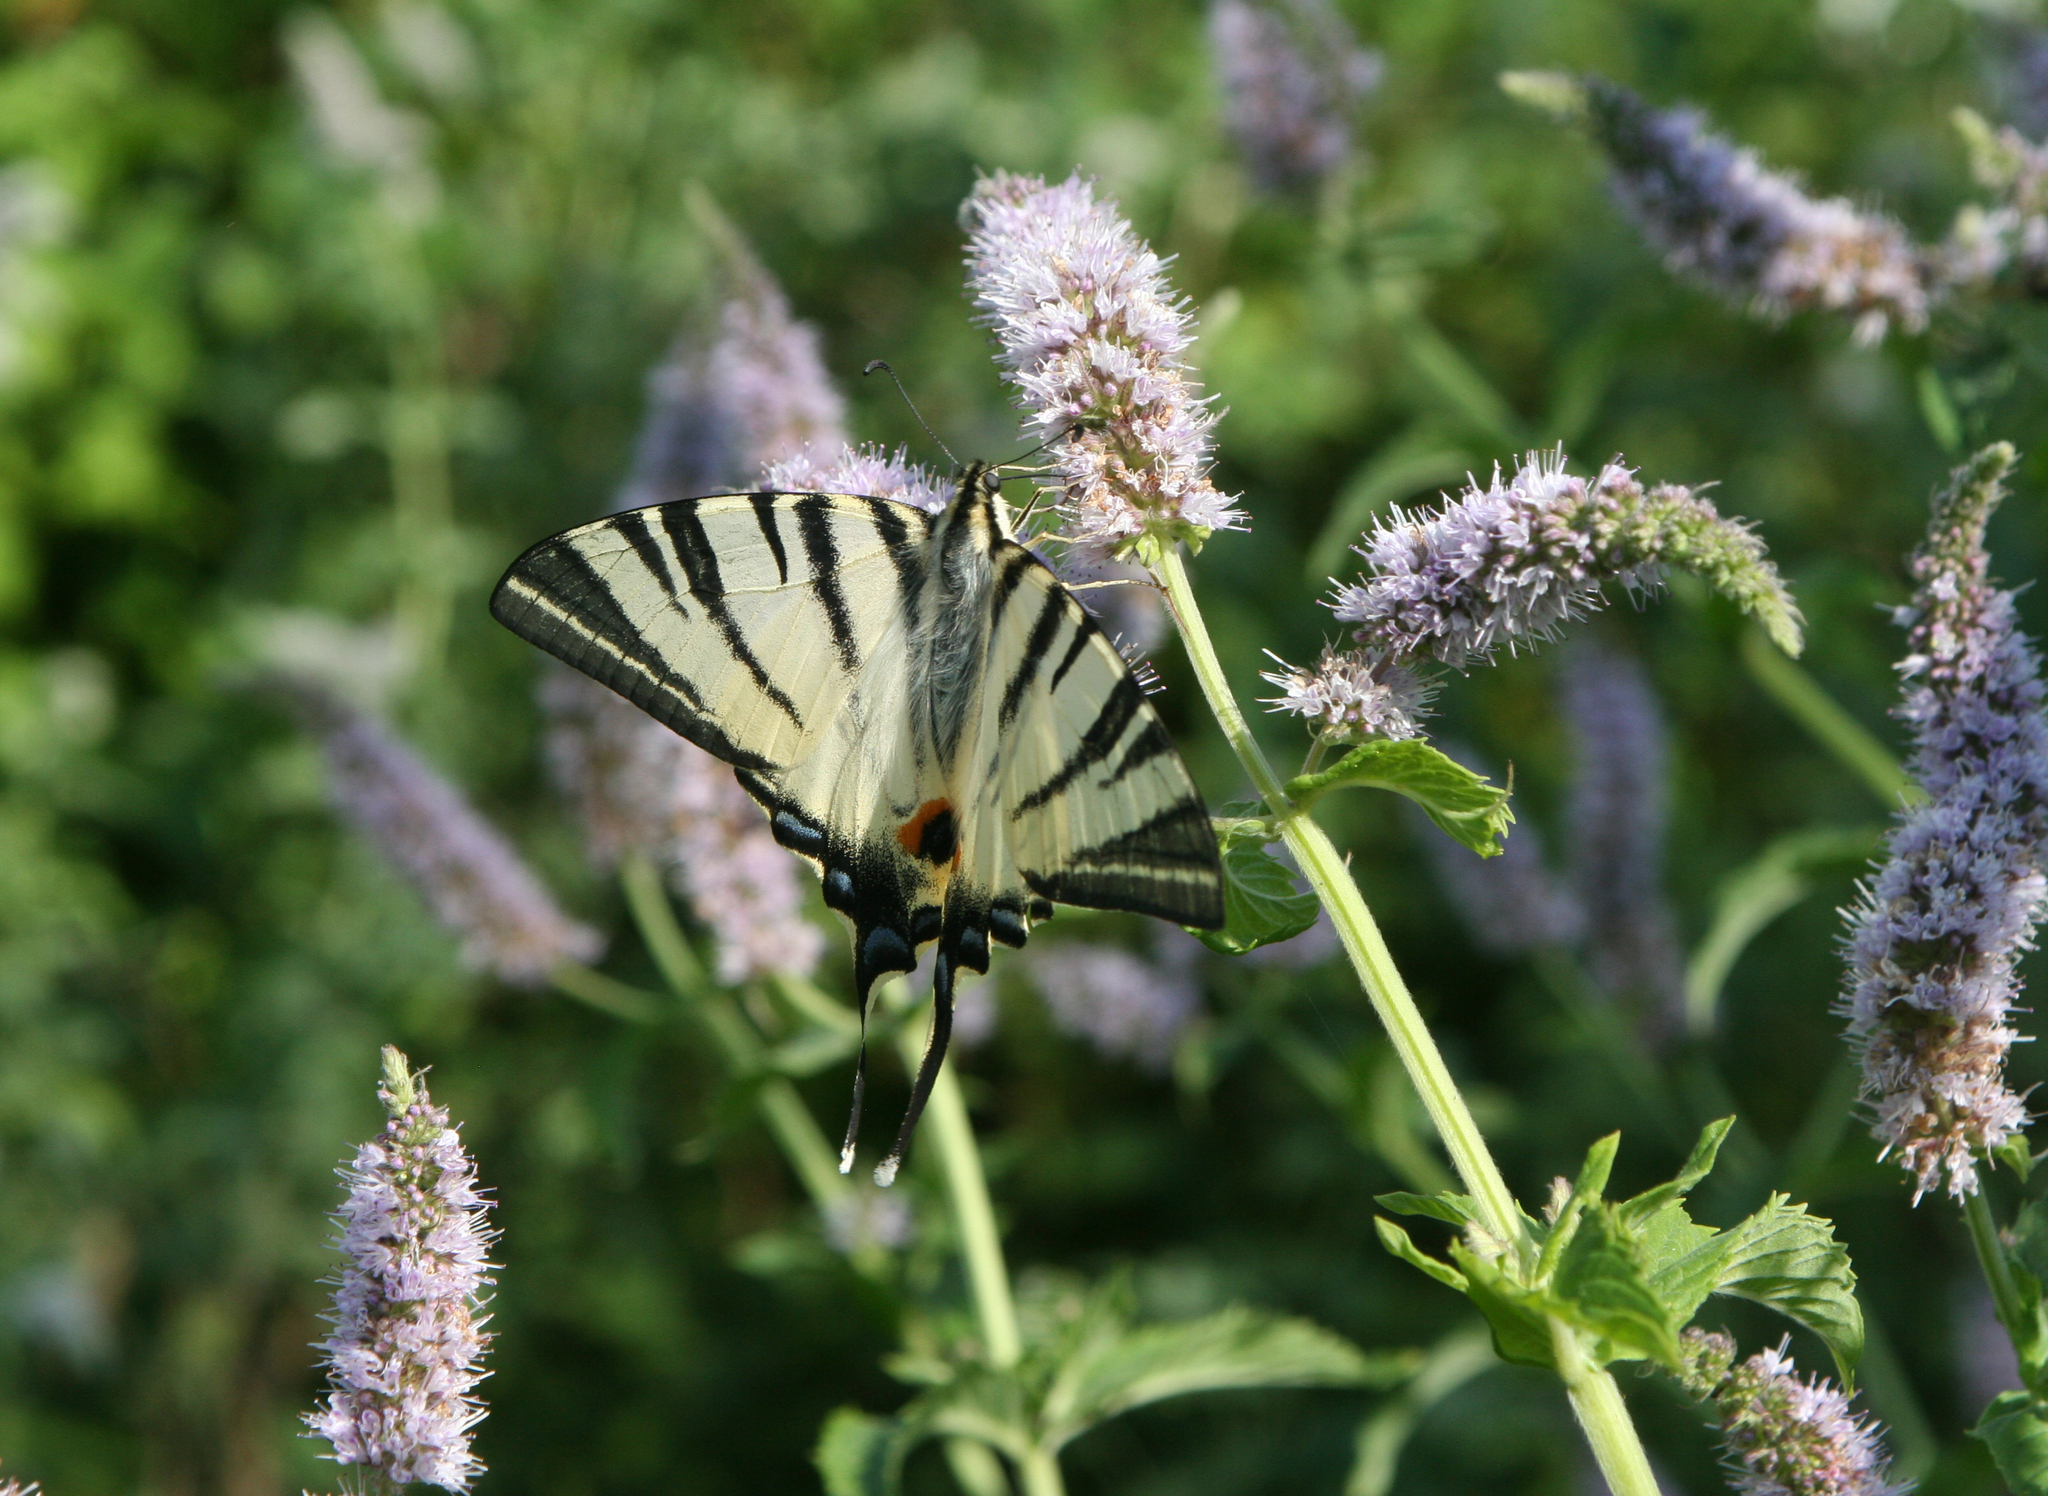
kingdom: Animalia
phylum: Arthropoda
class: Insecta
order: Lepidoptera
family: Papilionidae
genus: Iphiclides
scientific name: Iphiclides podalirius
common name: Scarce swallowtail
